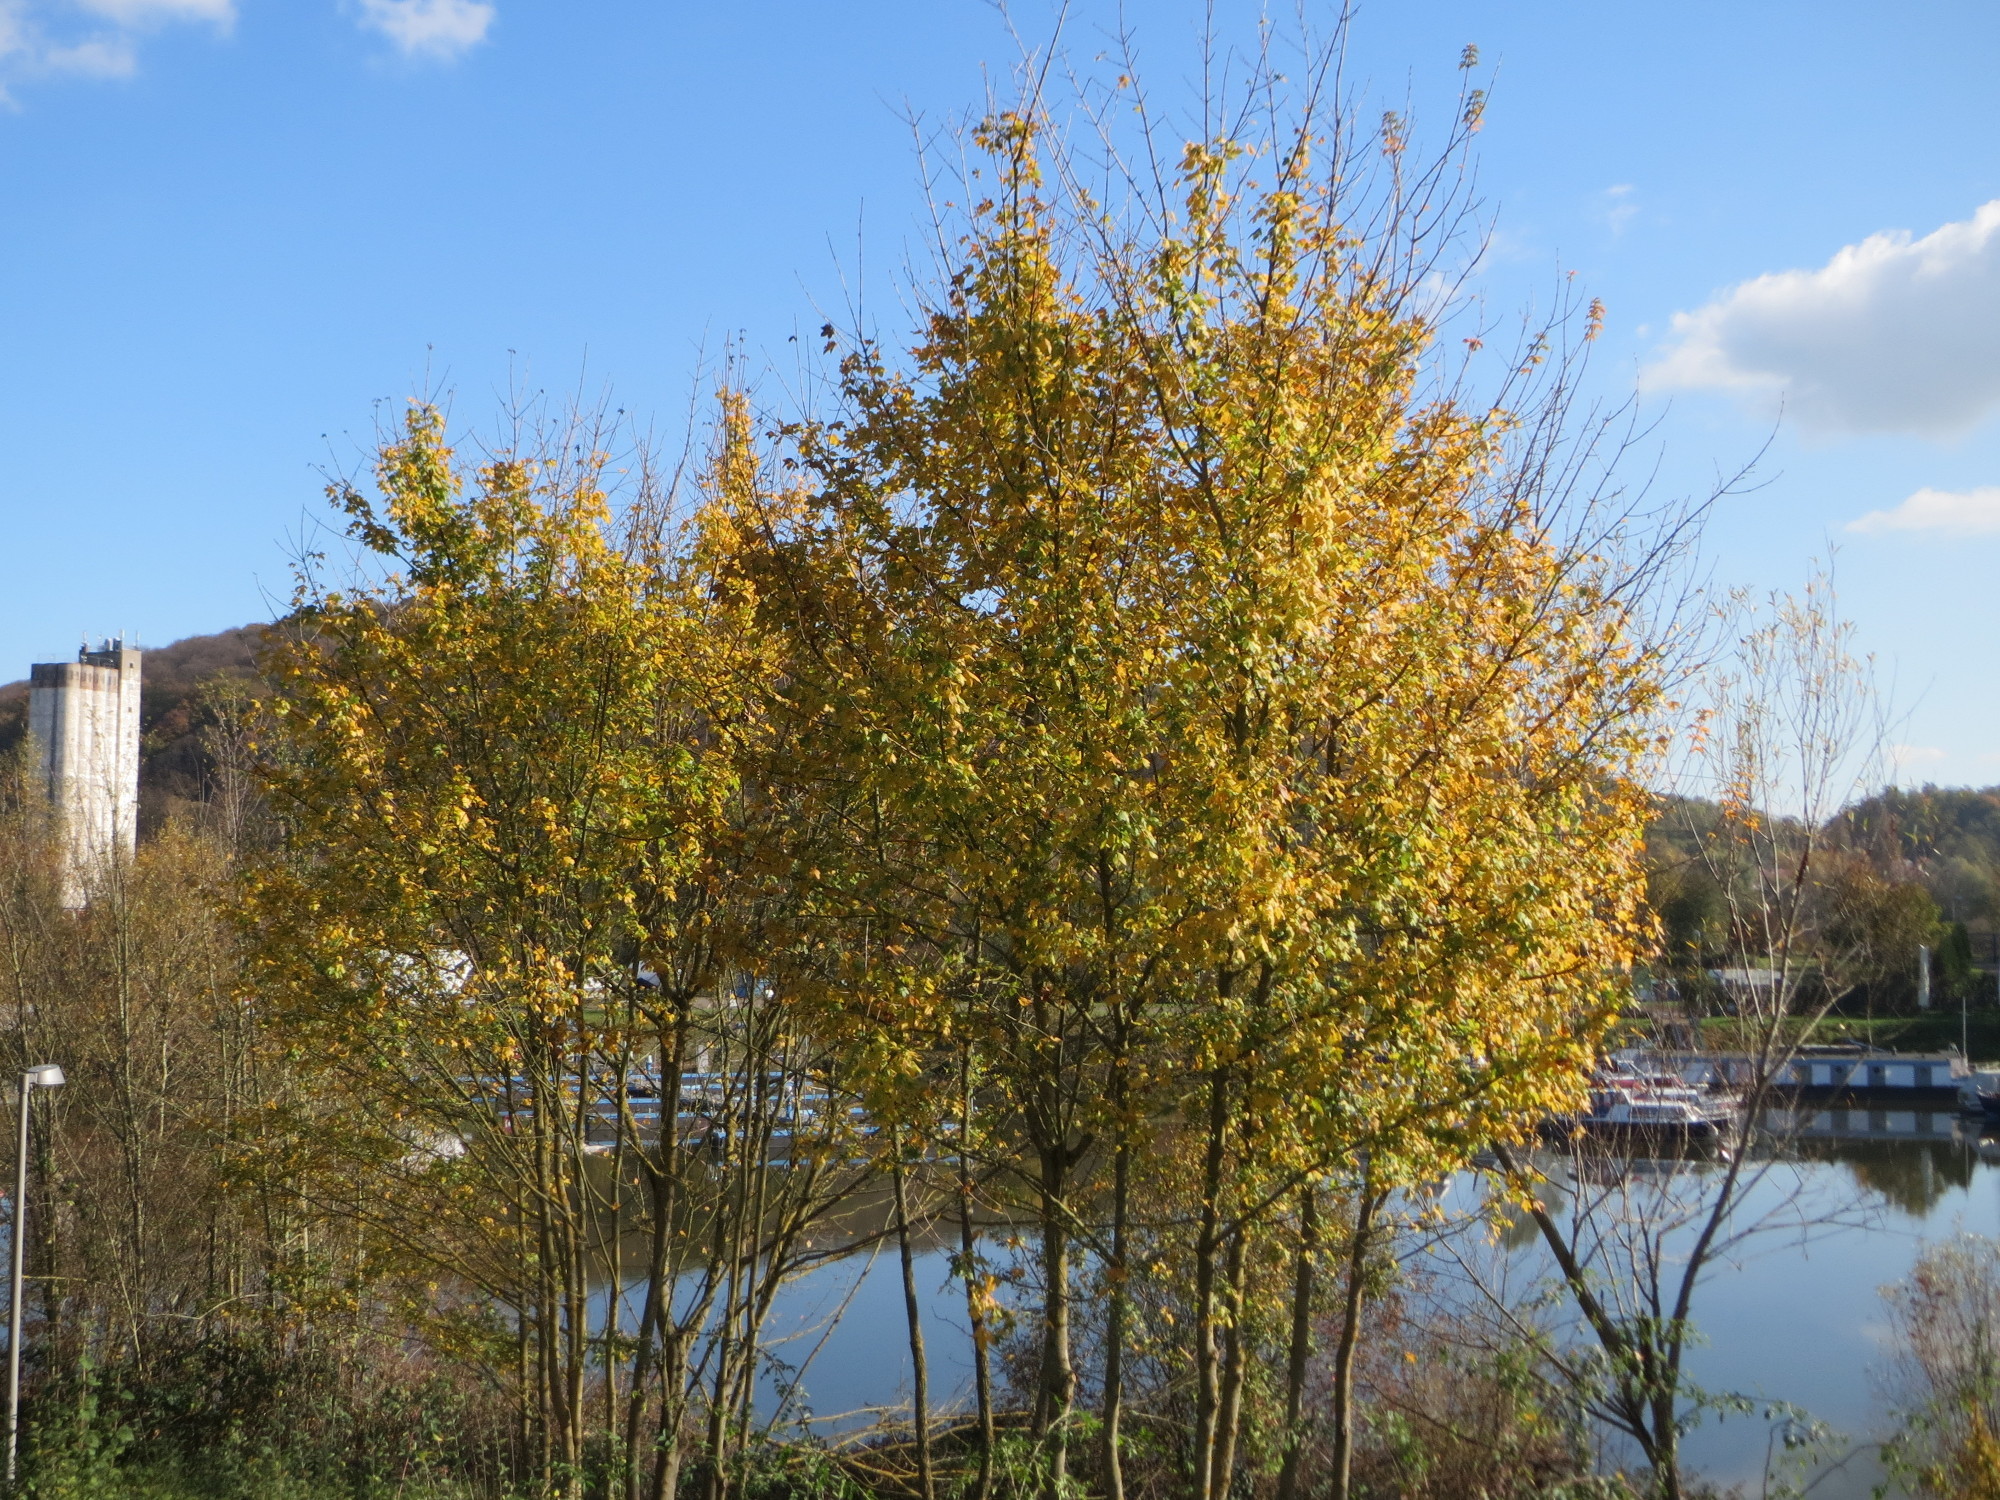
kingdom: Plantae
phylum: Tracheophyta
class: Magnoliopsida
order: Sapindales
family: Sapindaceae
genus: Acer
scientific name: Acer pseudoplatanus
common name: Sycamore
